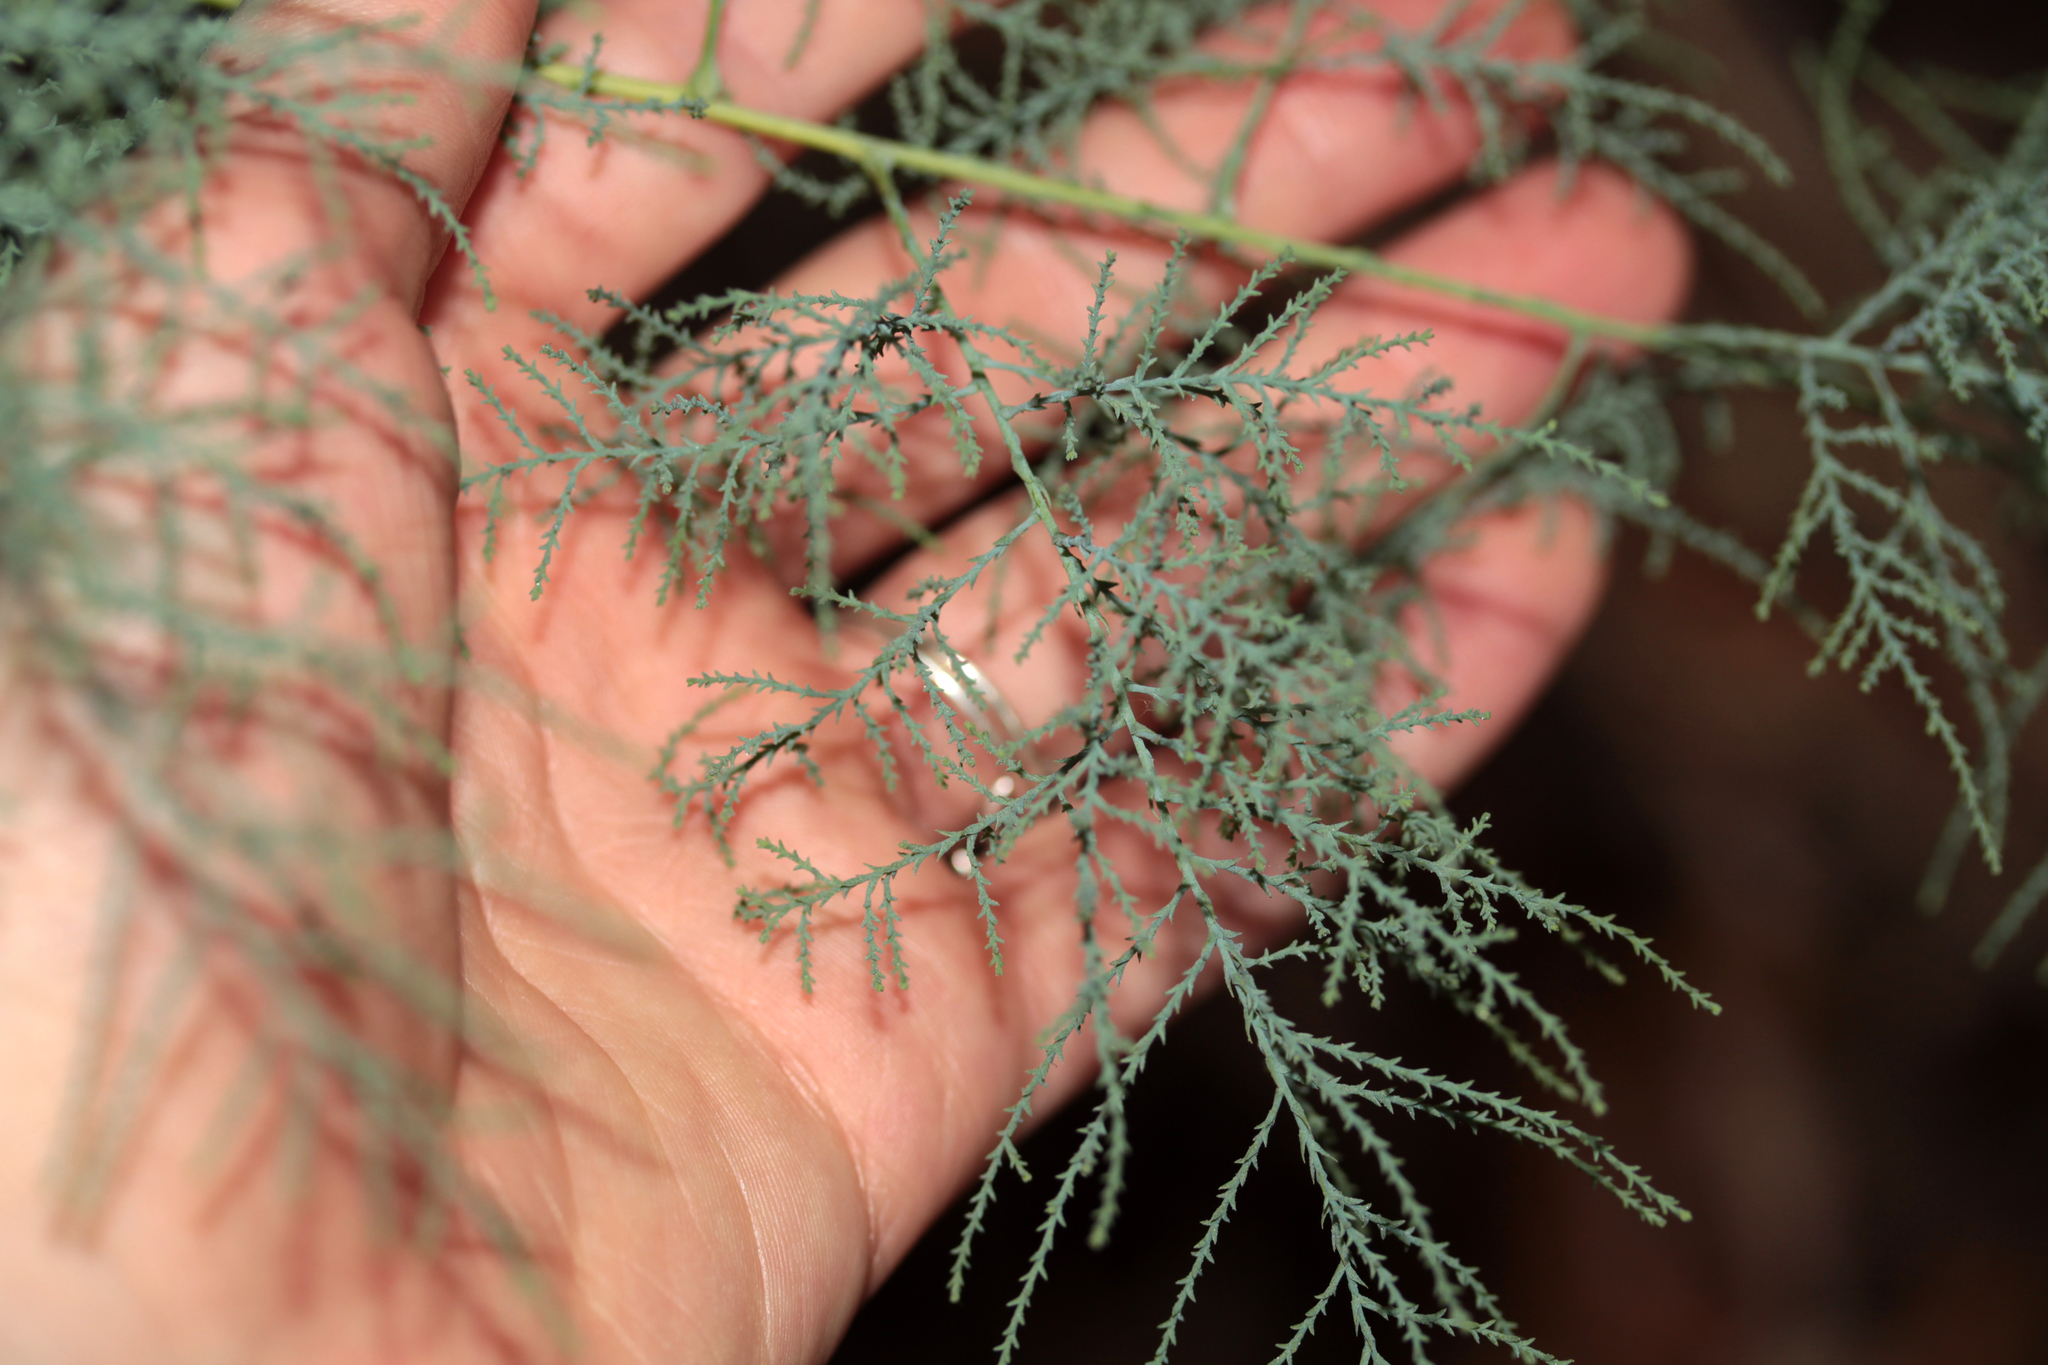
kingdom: Plantae
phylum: Tracheophyta
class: Magnoliopsida
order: Caryophyllales
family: Tamaricaceae
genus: Tamarix
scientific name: Tamarix
